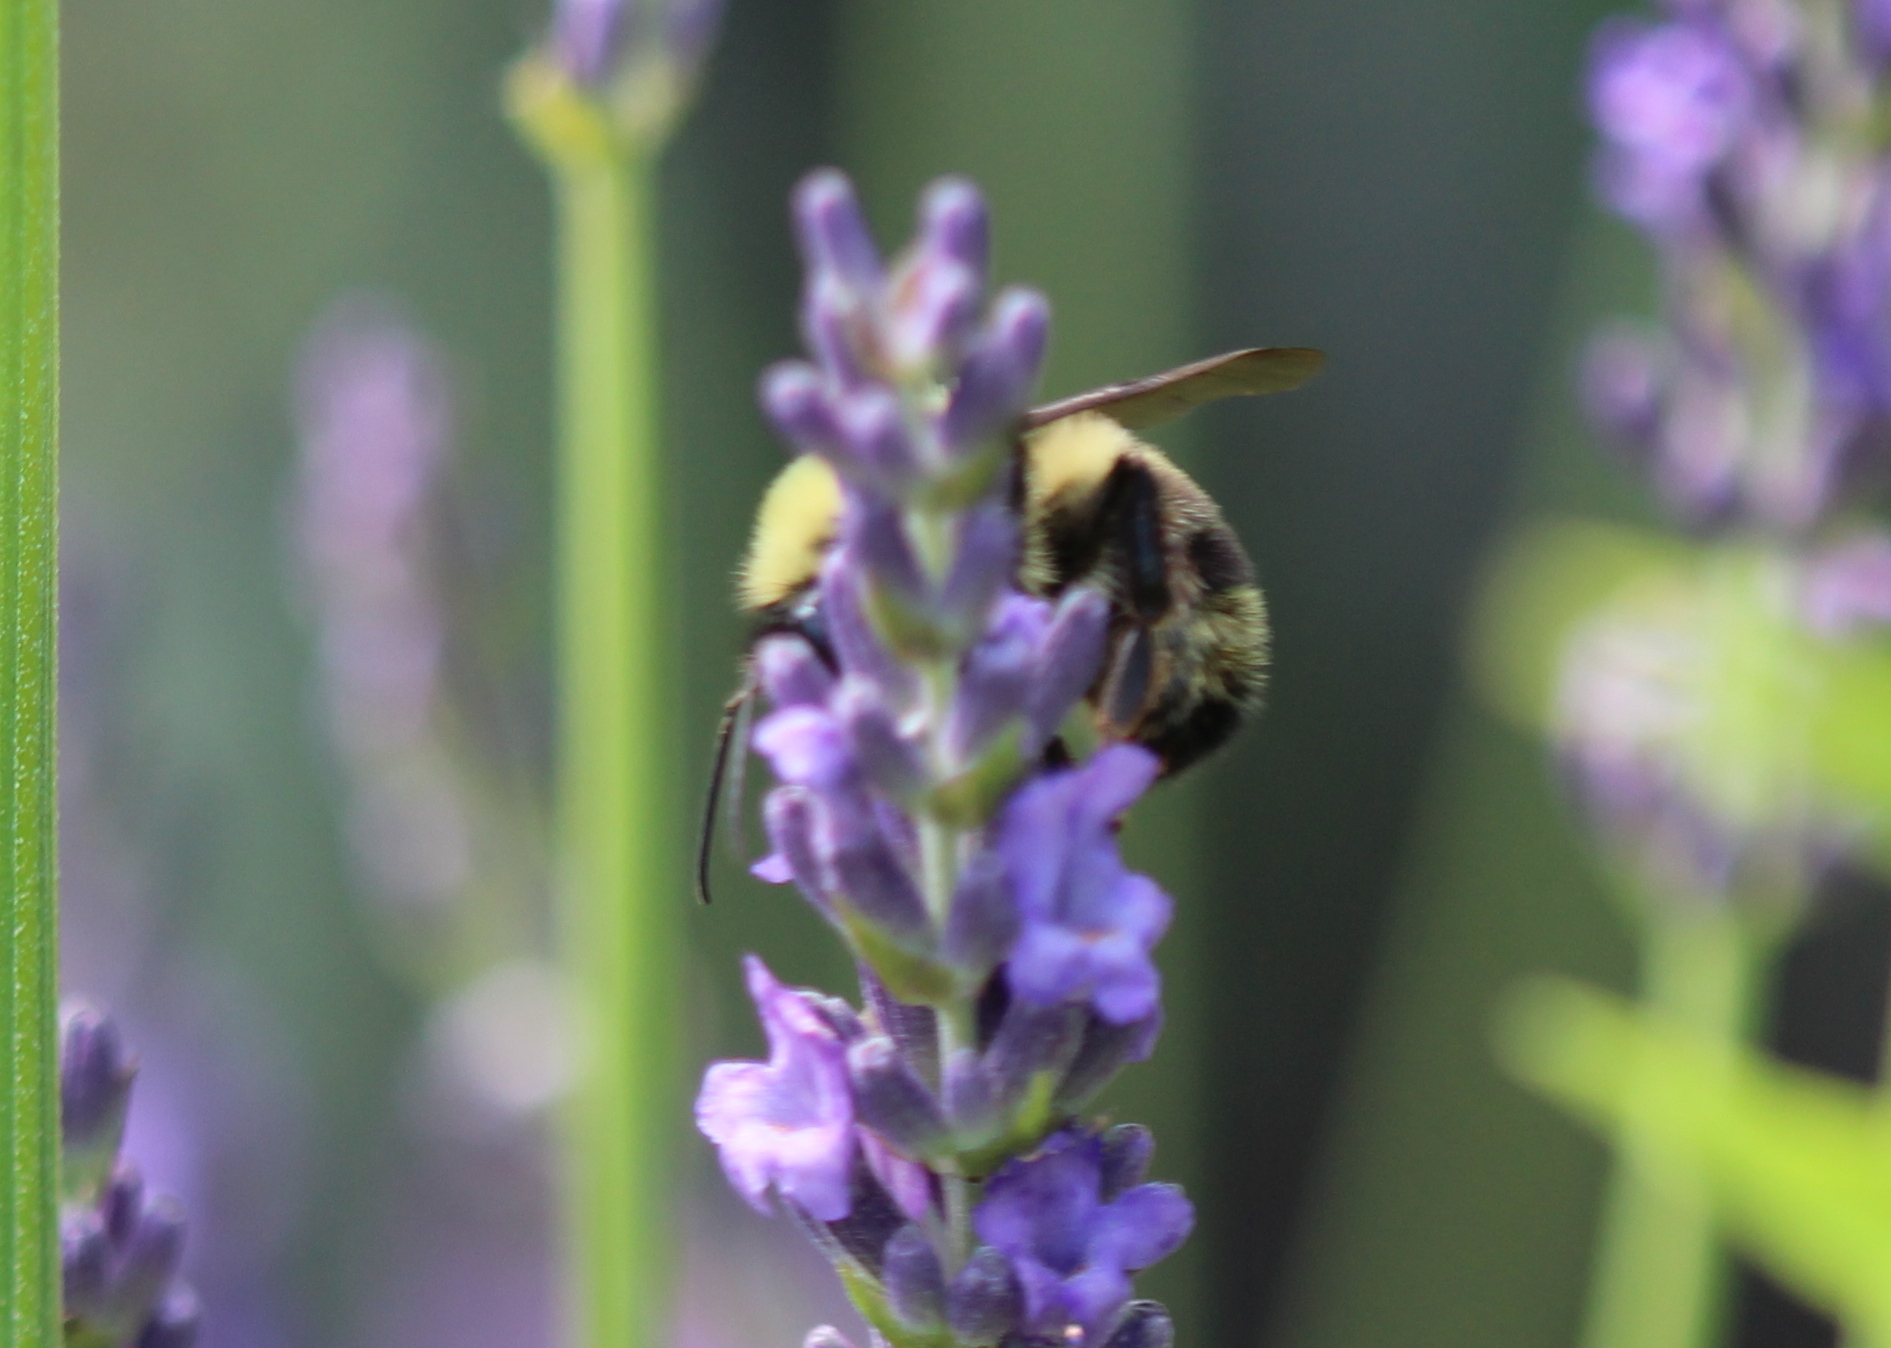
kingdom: Animalia
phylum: Arthropoda
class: Insecta
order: Hymenoptera
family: Apidae
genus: Bombus
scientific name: Bombus terricola
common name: Yellow-banded bumble bee
